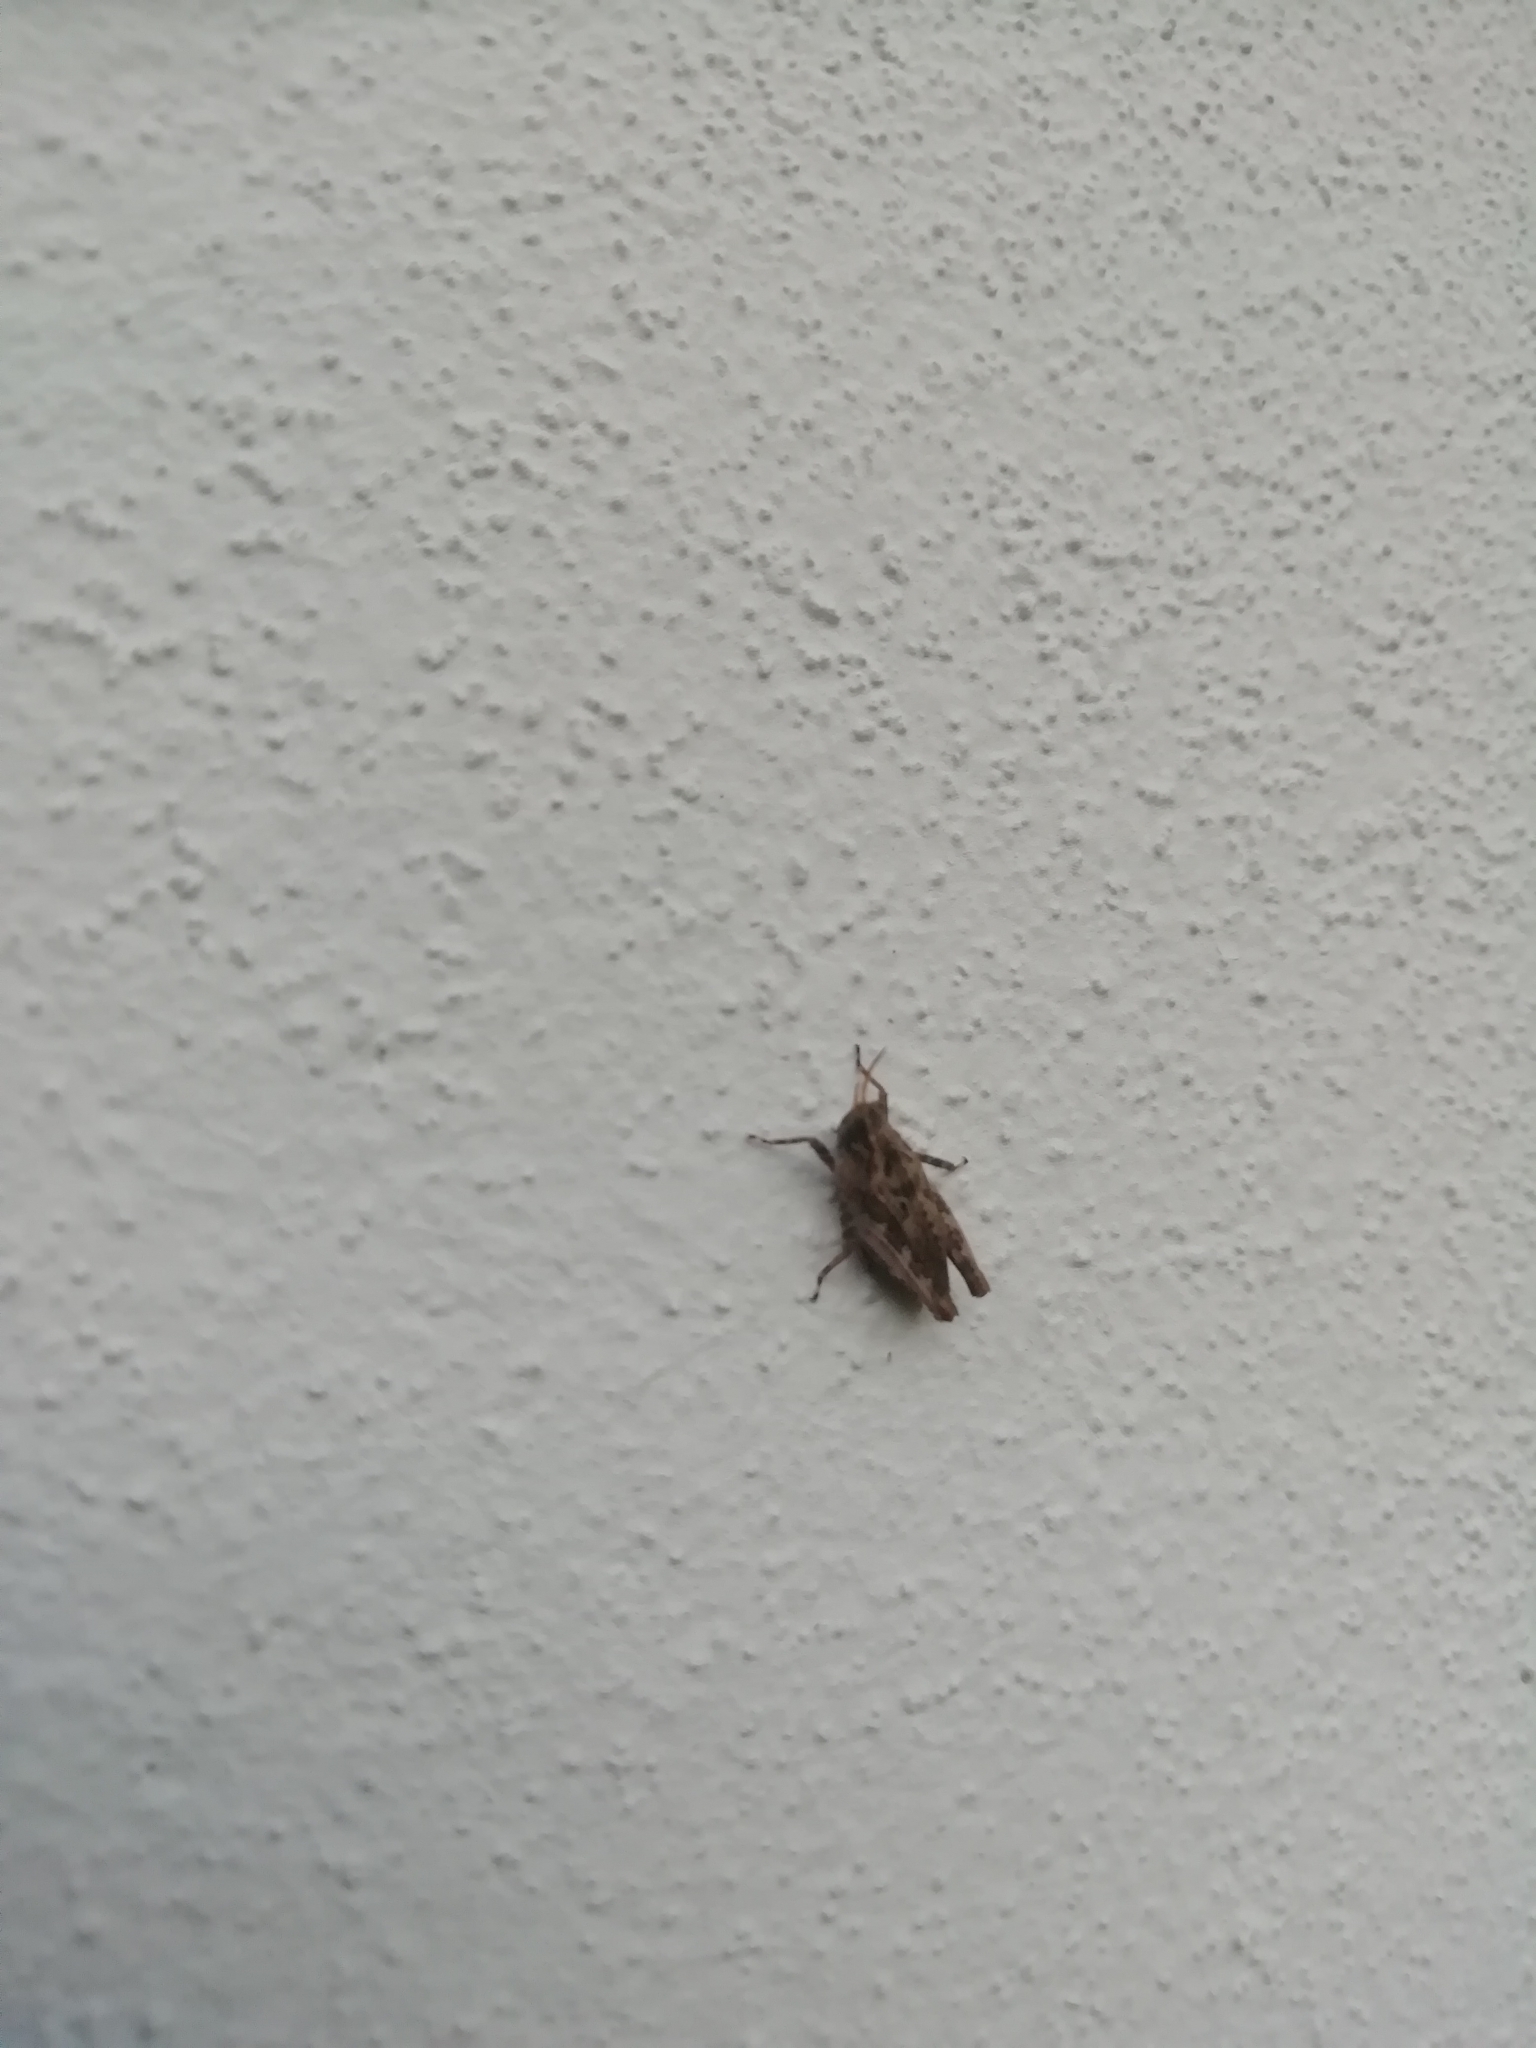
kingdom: Animalia
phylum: Arthropoda
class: Insecta
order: Orthoptera
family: Tetrigidae
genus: Tetrix
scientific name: Tetrix undulata
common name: Common groundhopper
